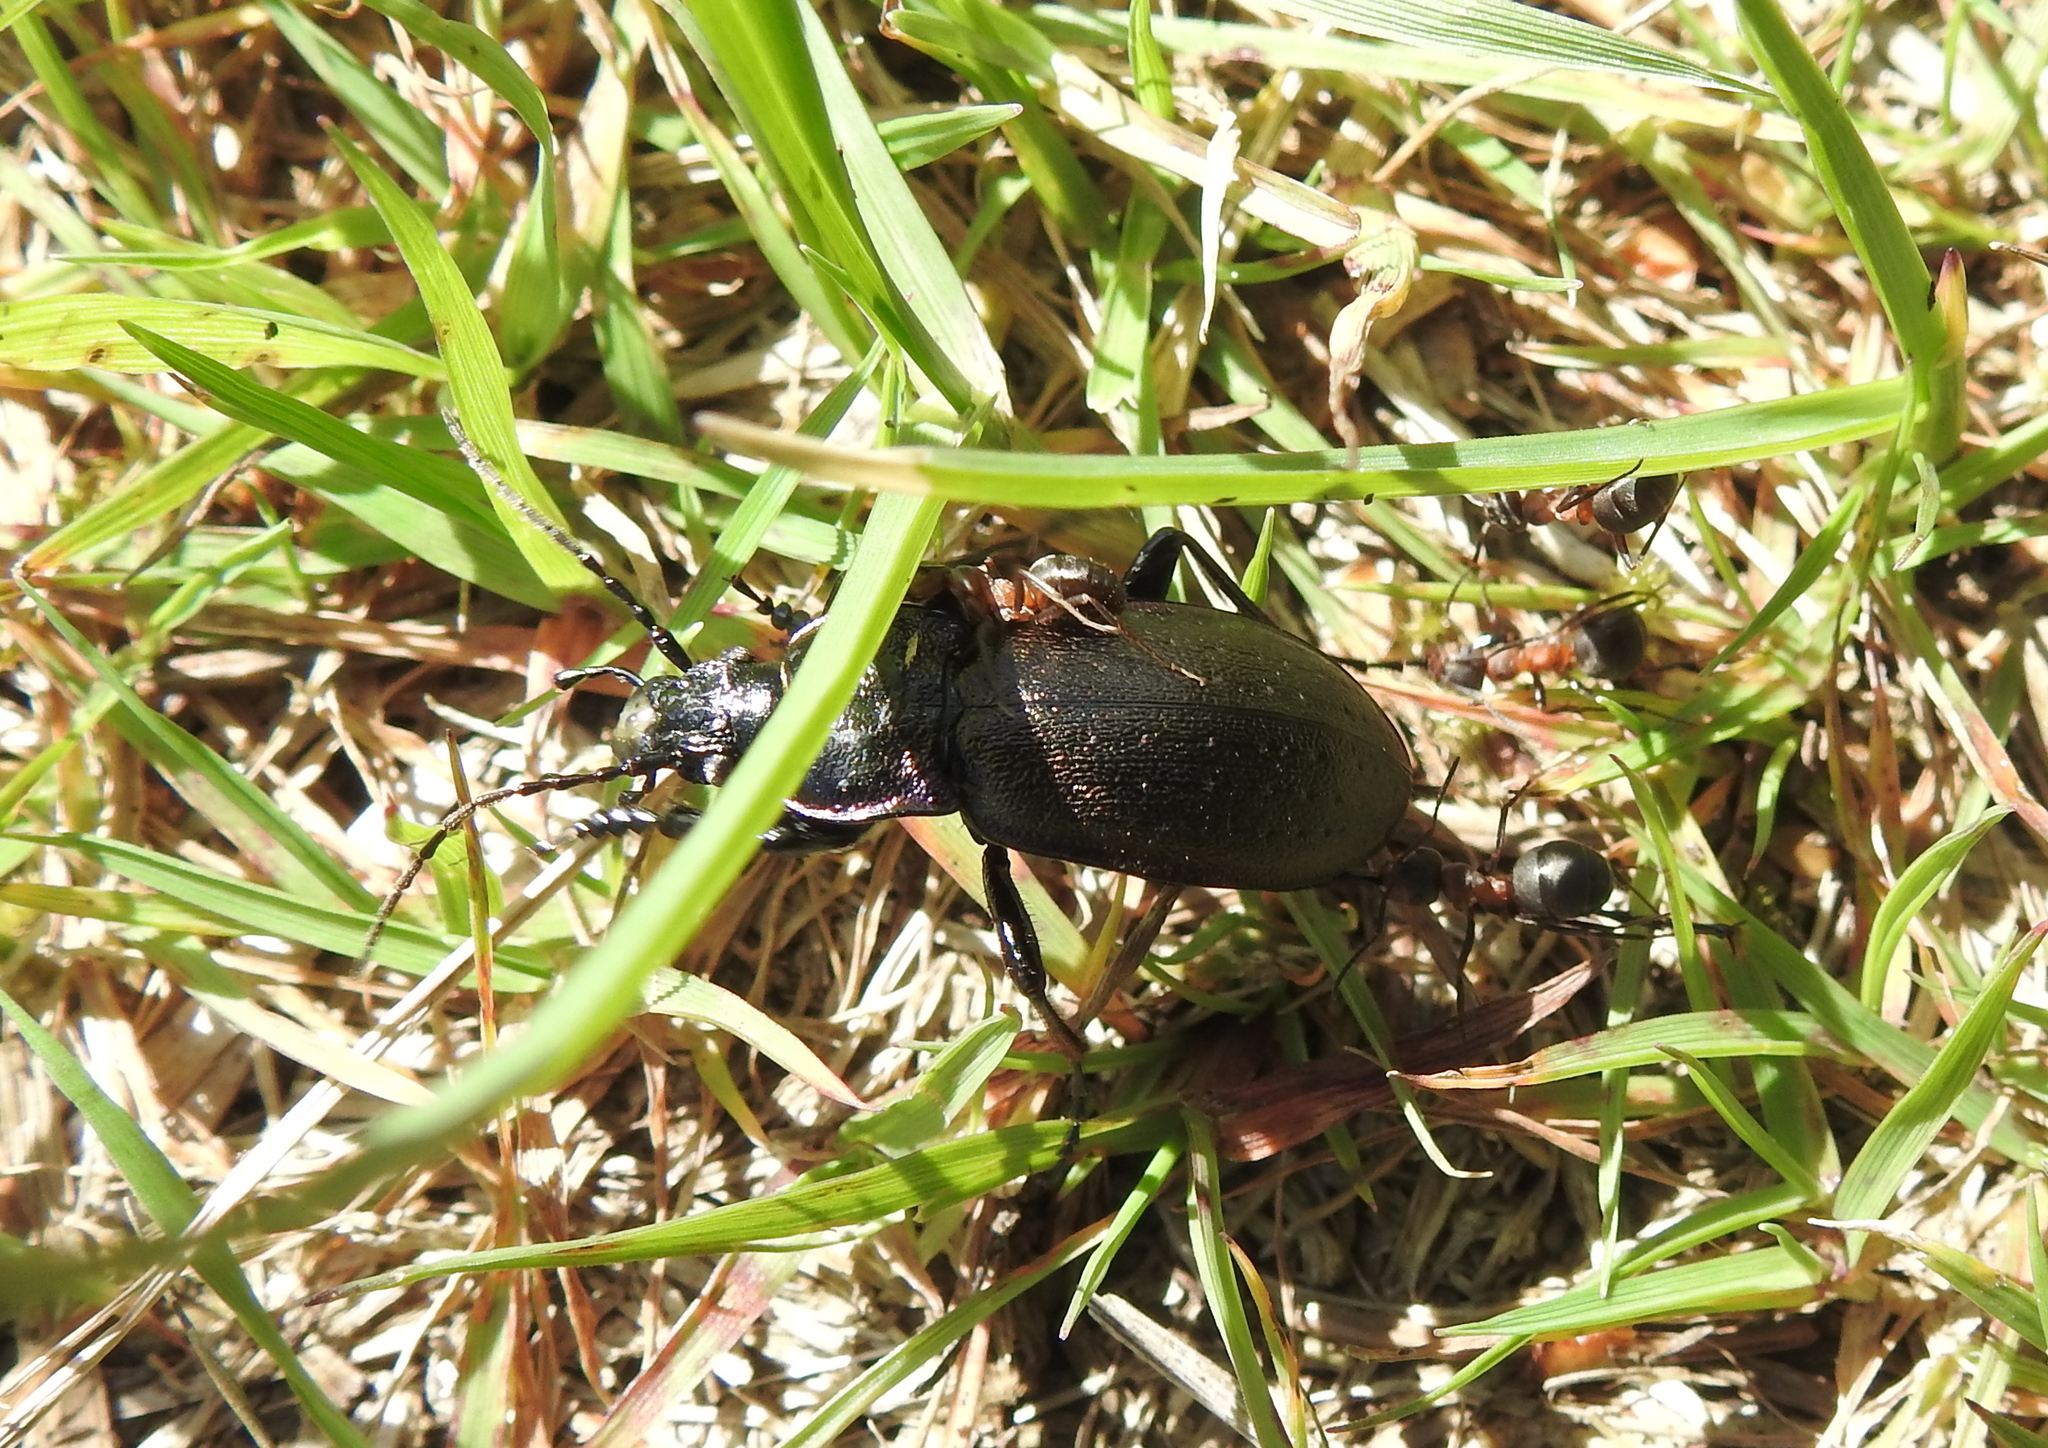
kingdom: Animalia
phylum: Arthropoda
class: Insecta
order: Coleoptera
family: Carabidae
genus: Carabus
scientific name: Carabus nemoralis
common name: European ground beetle
